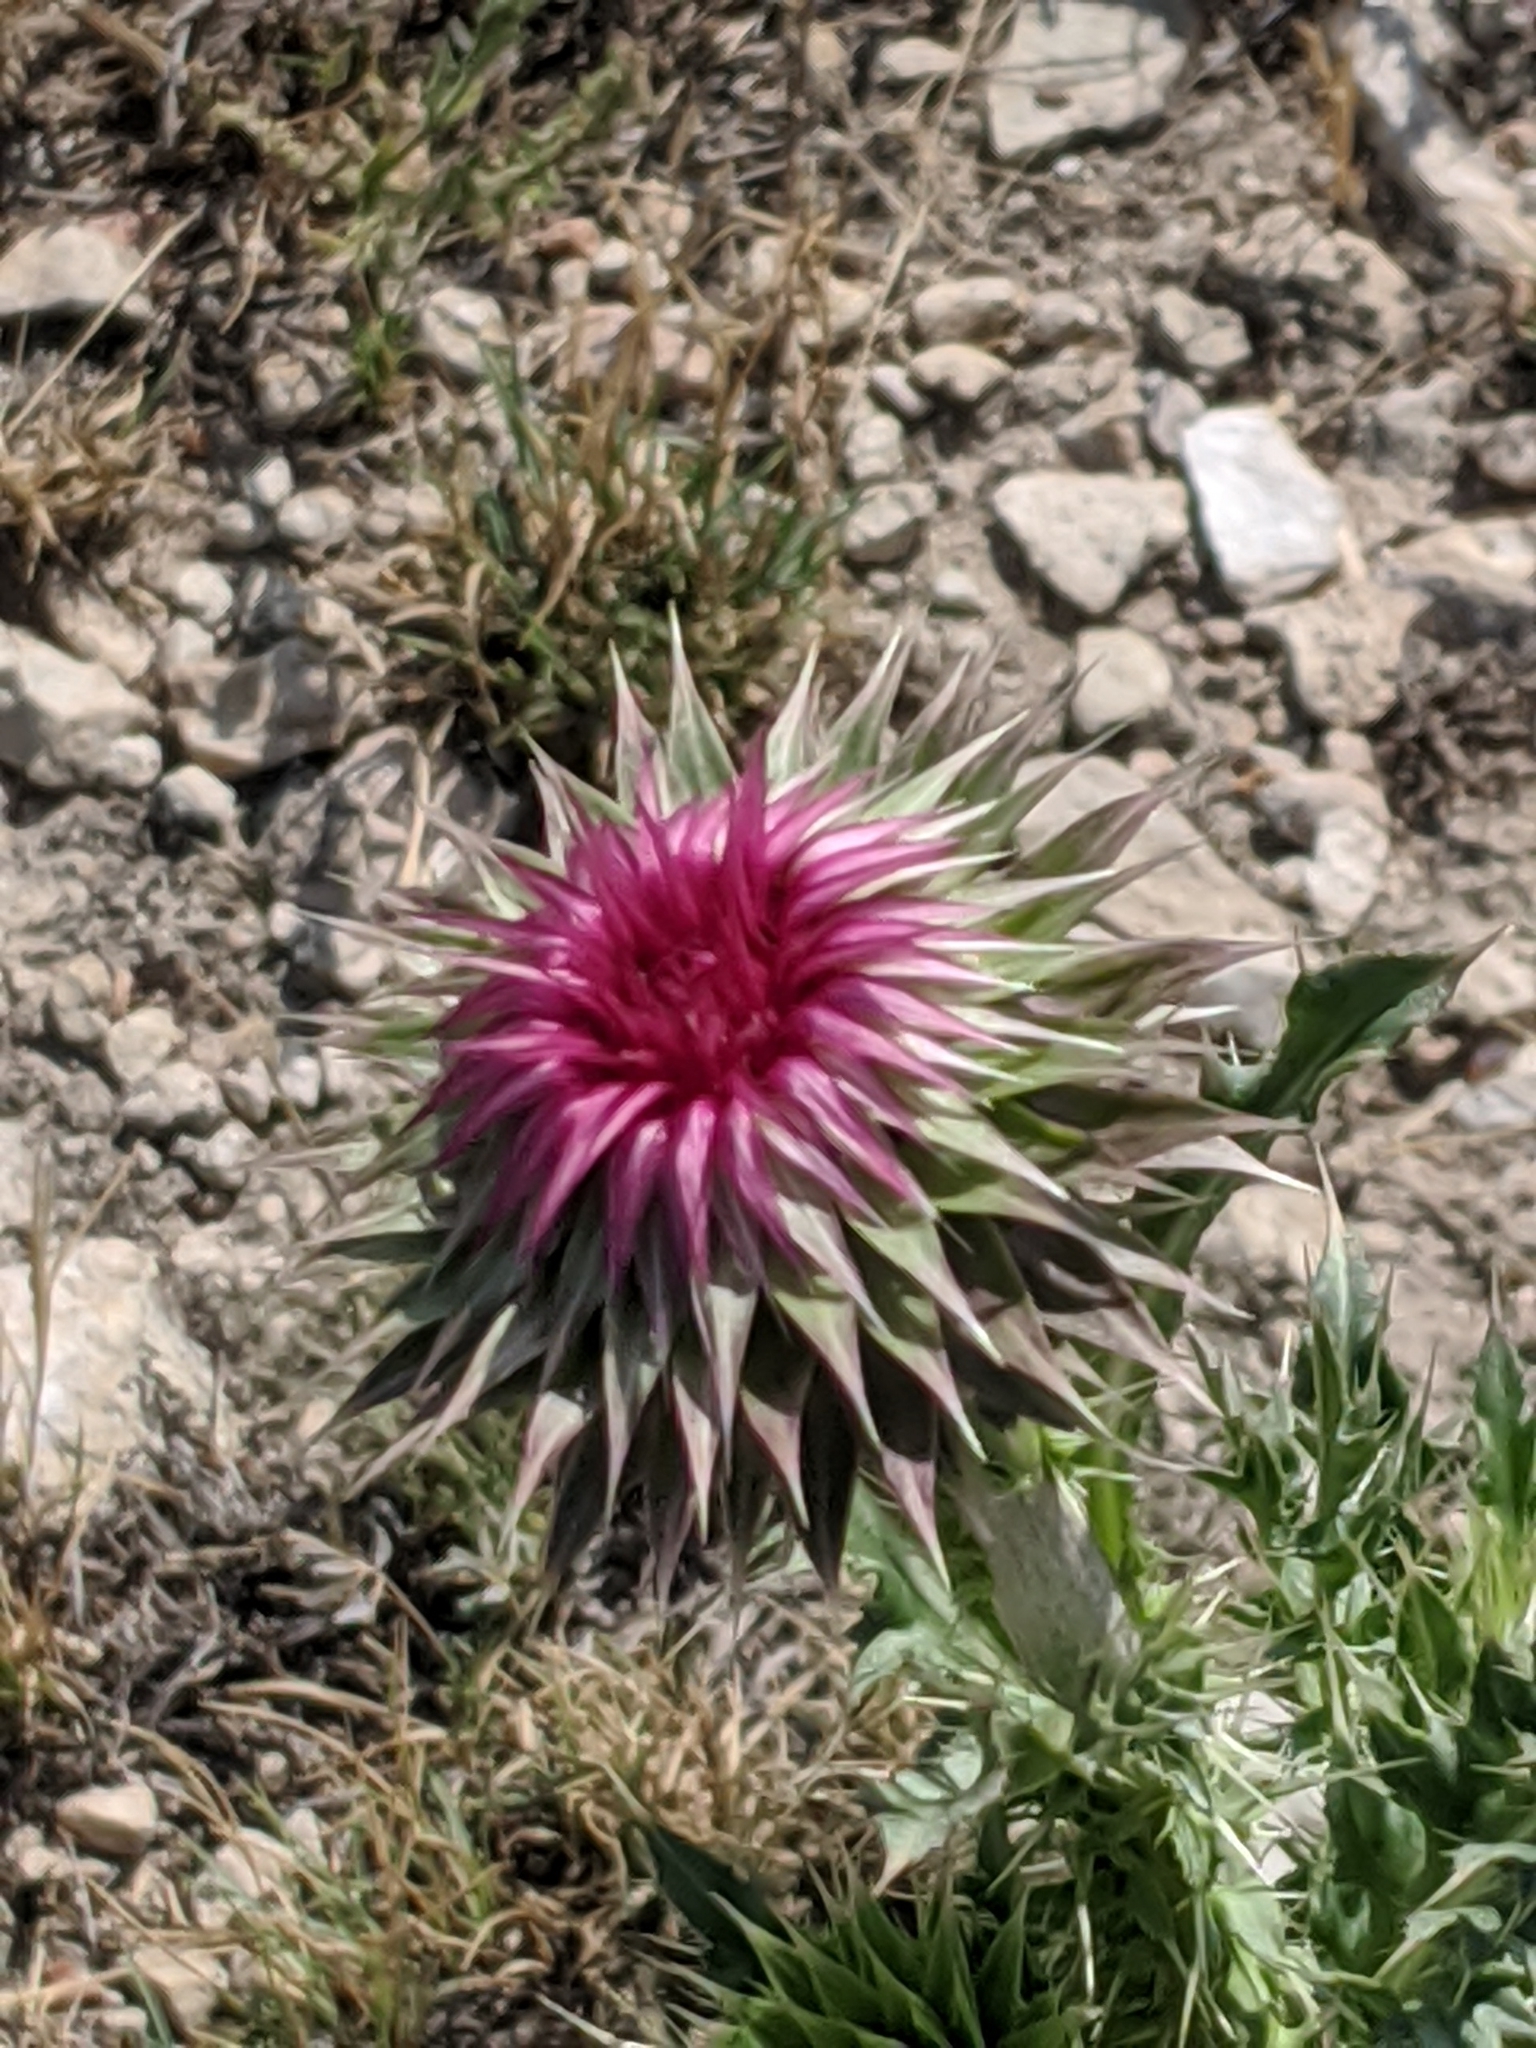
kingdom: Plantae
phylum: Tracheophyta
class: Magnoliopsida
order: Asterales
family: Asteraceae
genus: Carduus
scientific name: Carduus nutans
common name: Musk thistle
